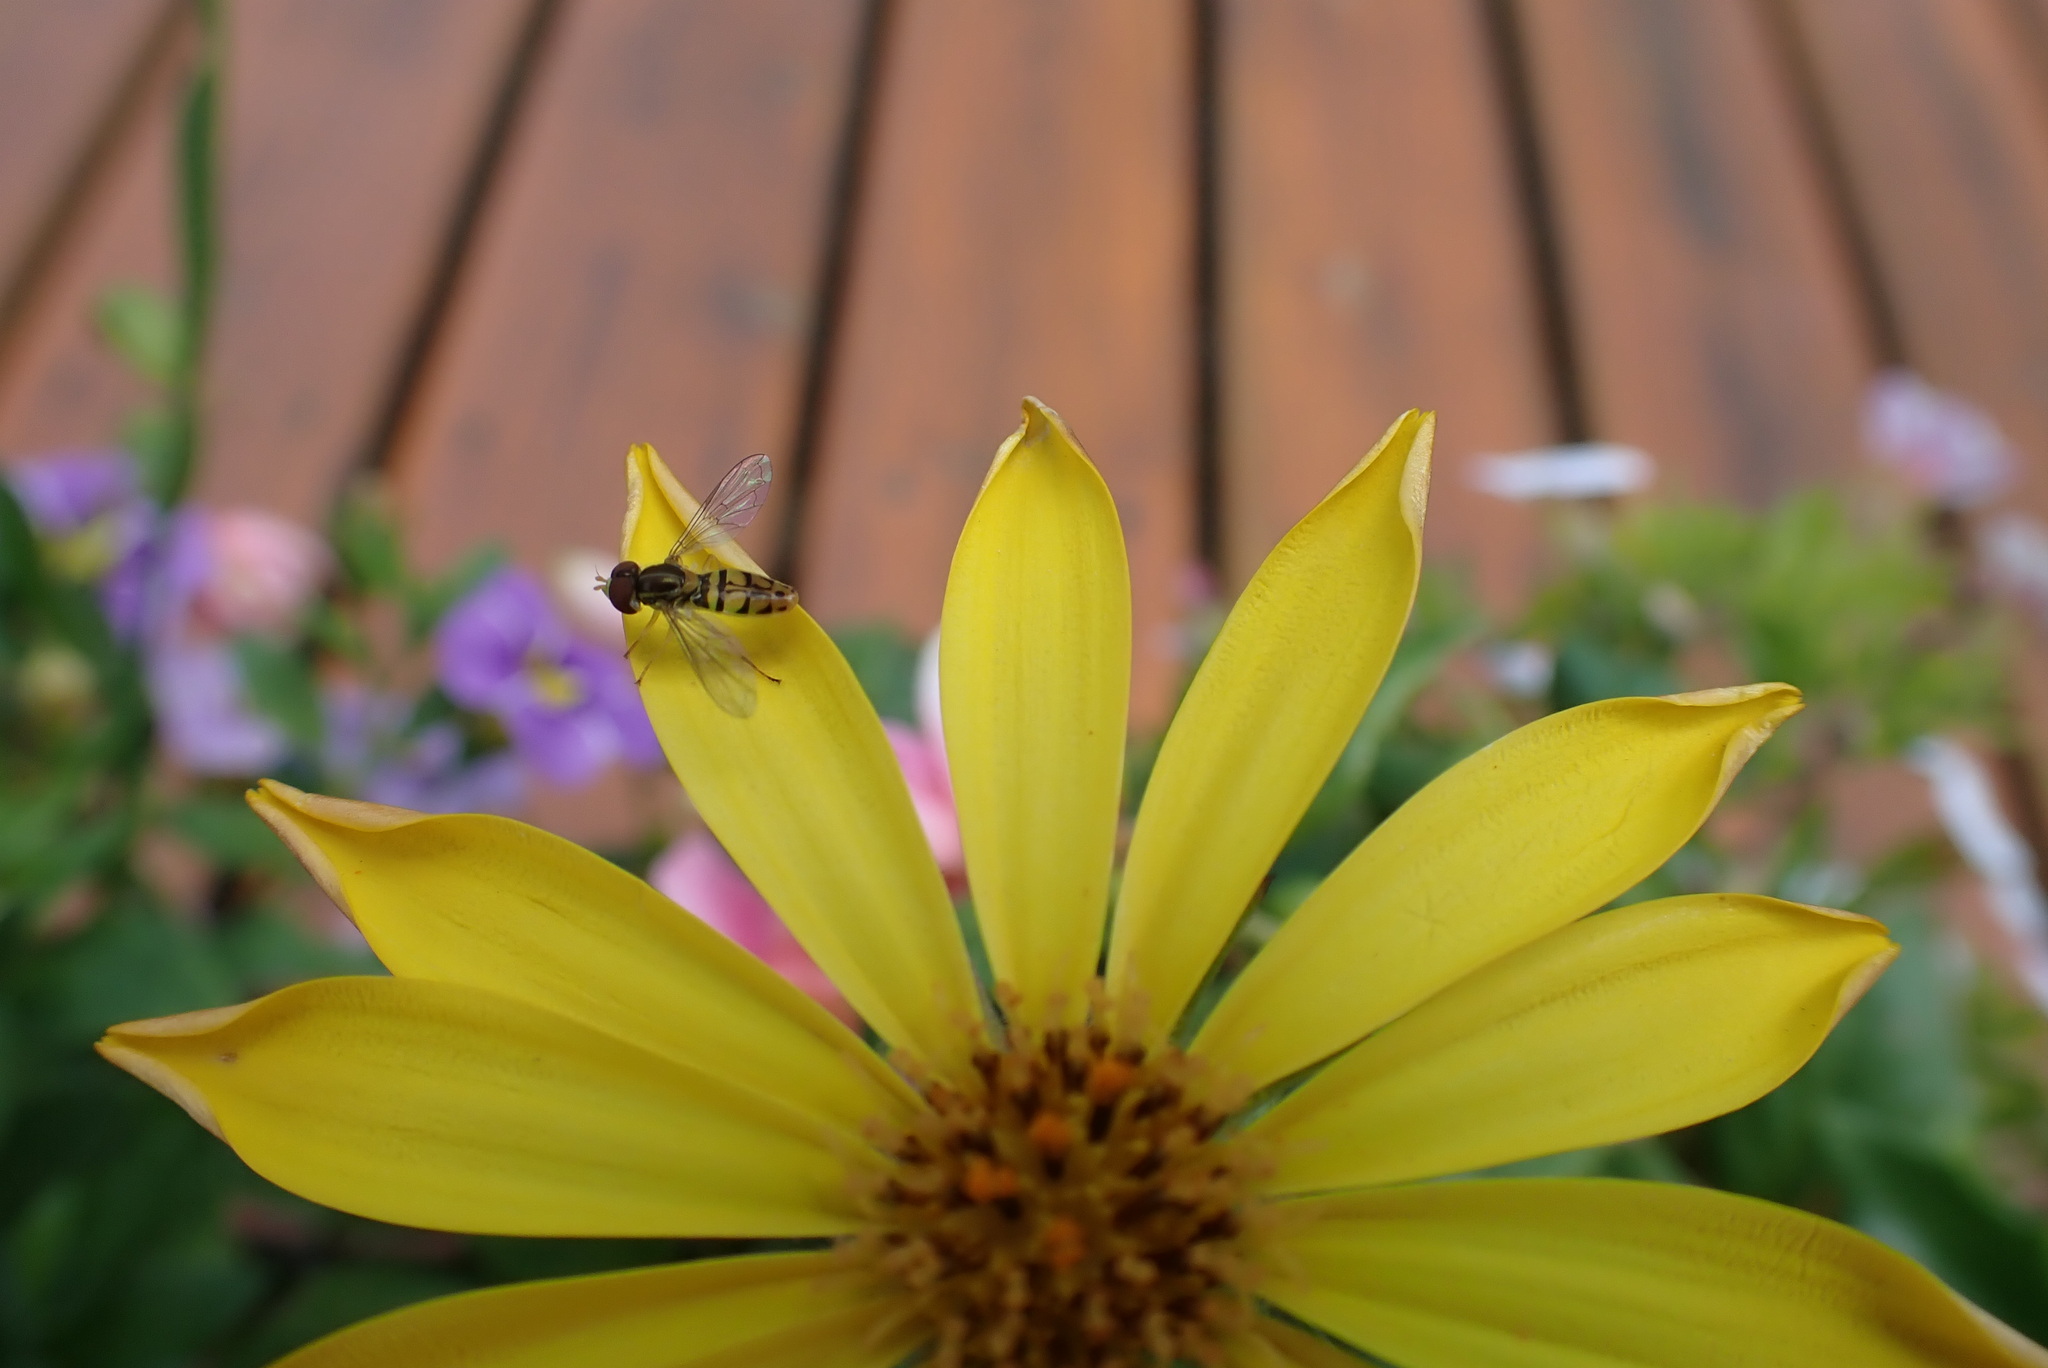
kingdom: Animalia
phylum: Arthropoda
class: Insecta
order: Diptera
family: Syrphidae
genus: Toxomerus
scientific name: Toxomerus marginatus
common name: Syrphid fly
